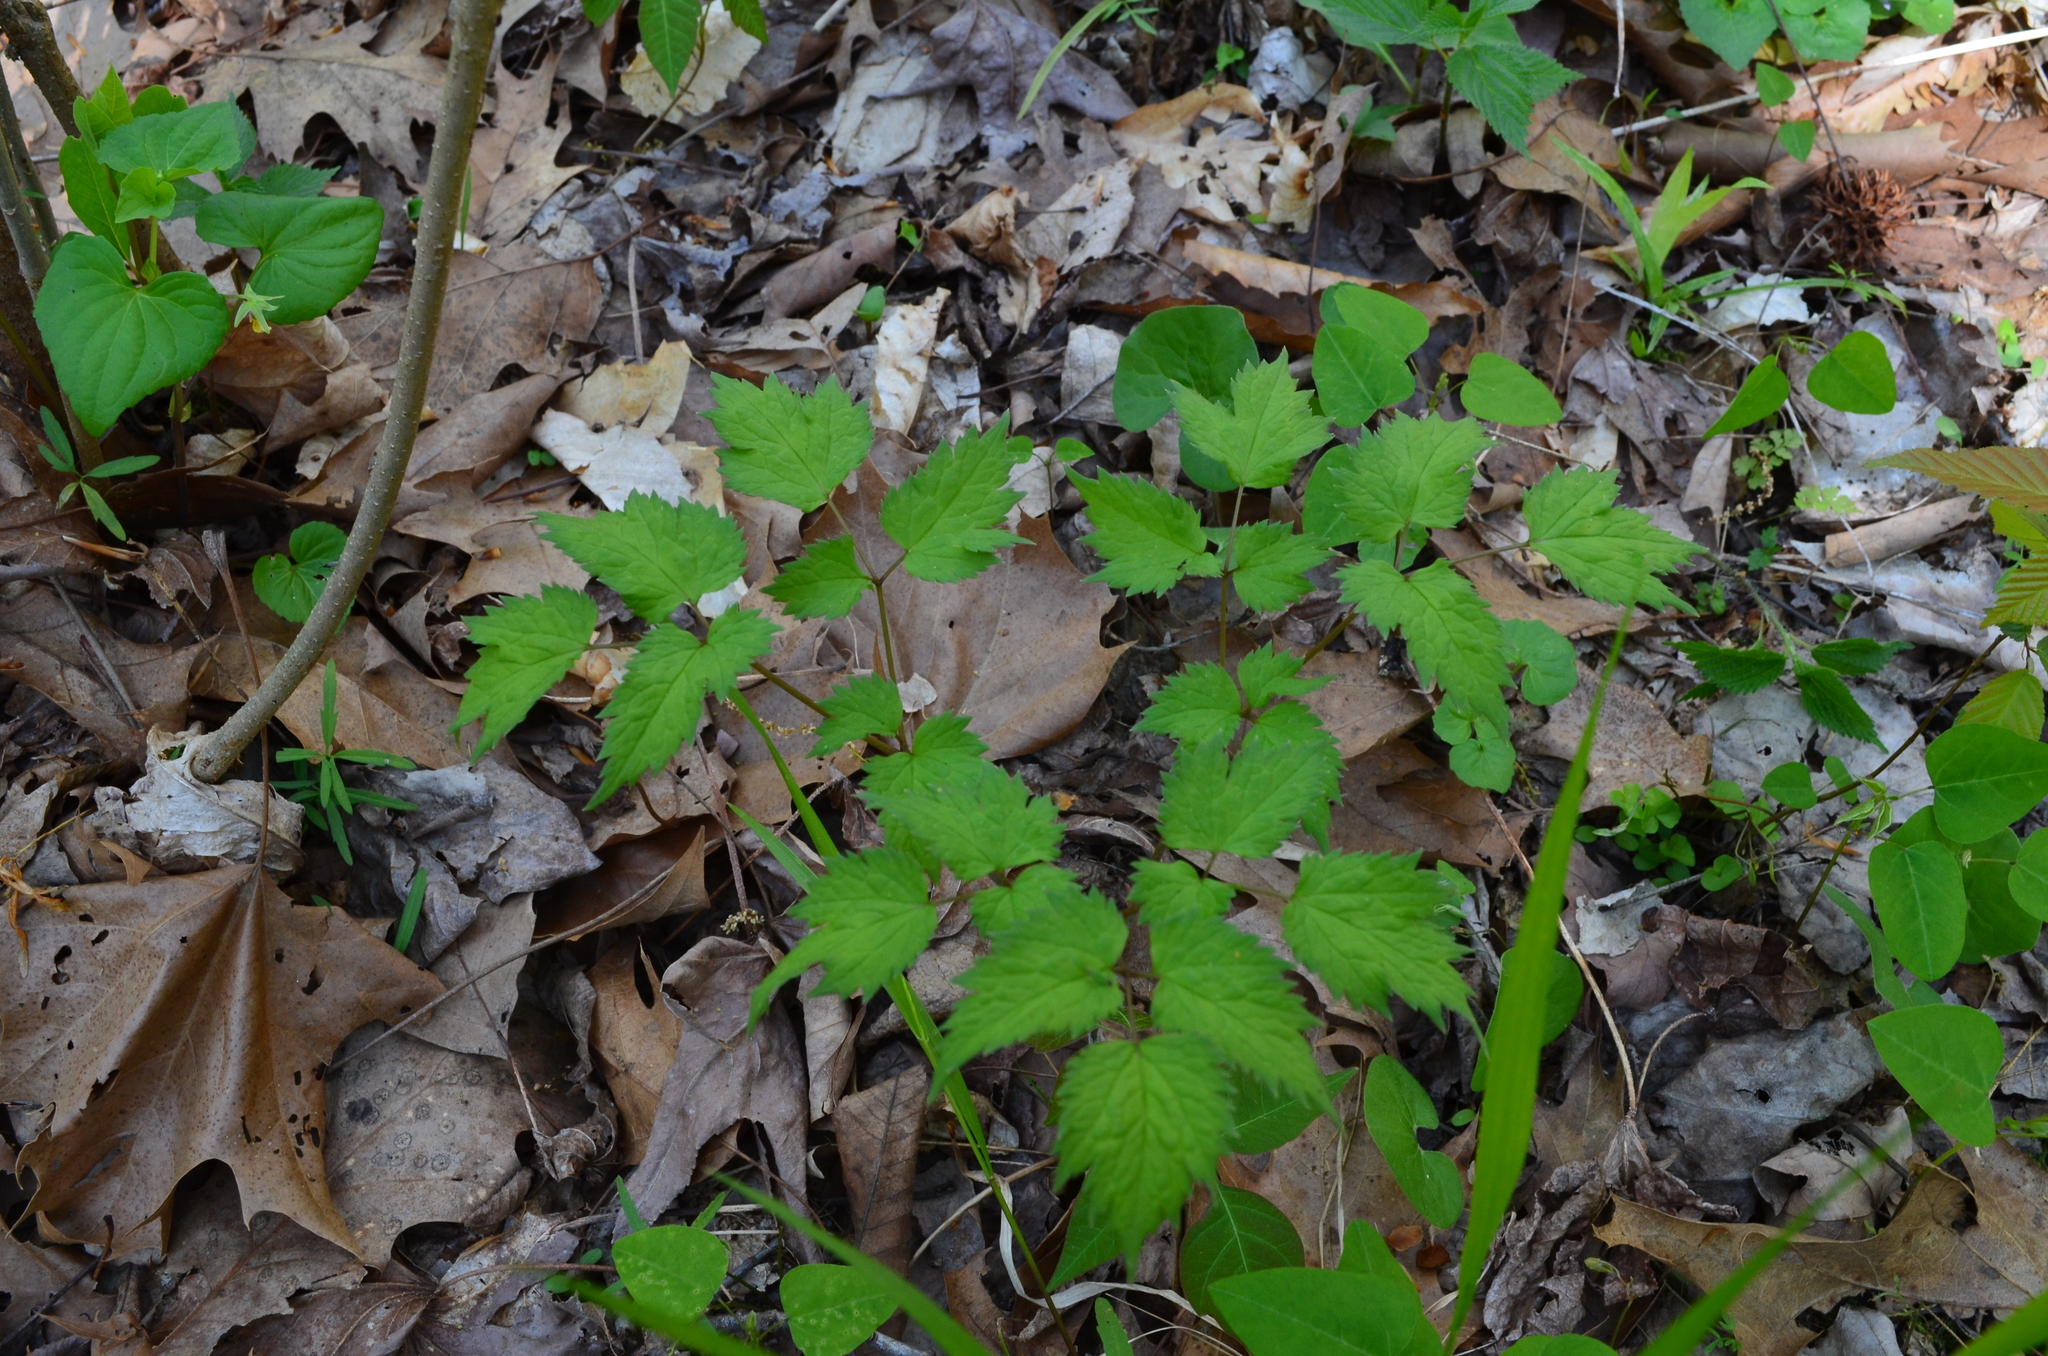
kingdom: Plantae
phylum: Tracheophyta
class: Magnoliopsida
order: Ranunculales
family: Ranunculaceae
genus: Actaea
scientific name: Actaea pachypoda
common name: Doll's-eyes
